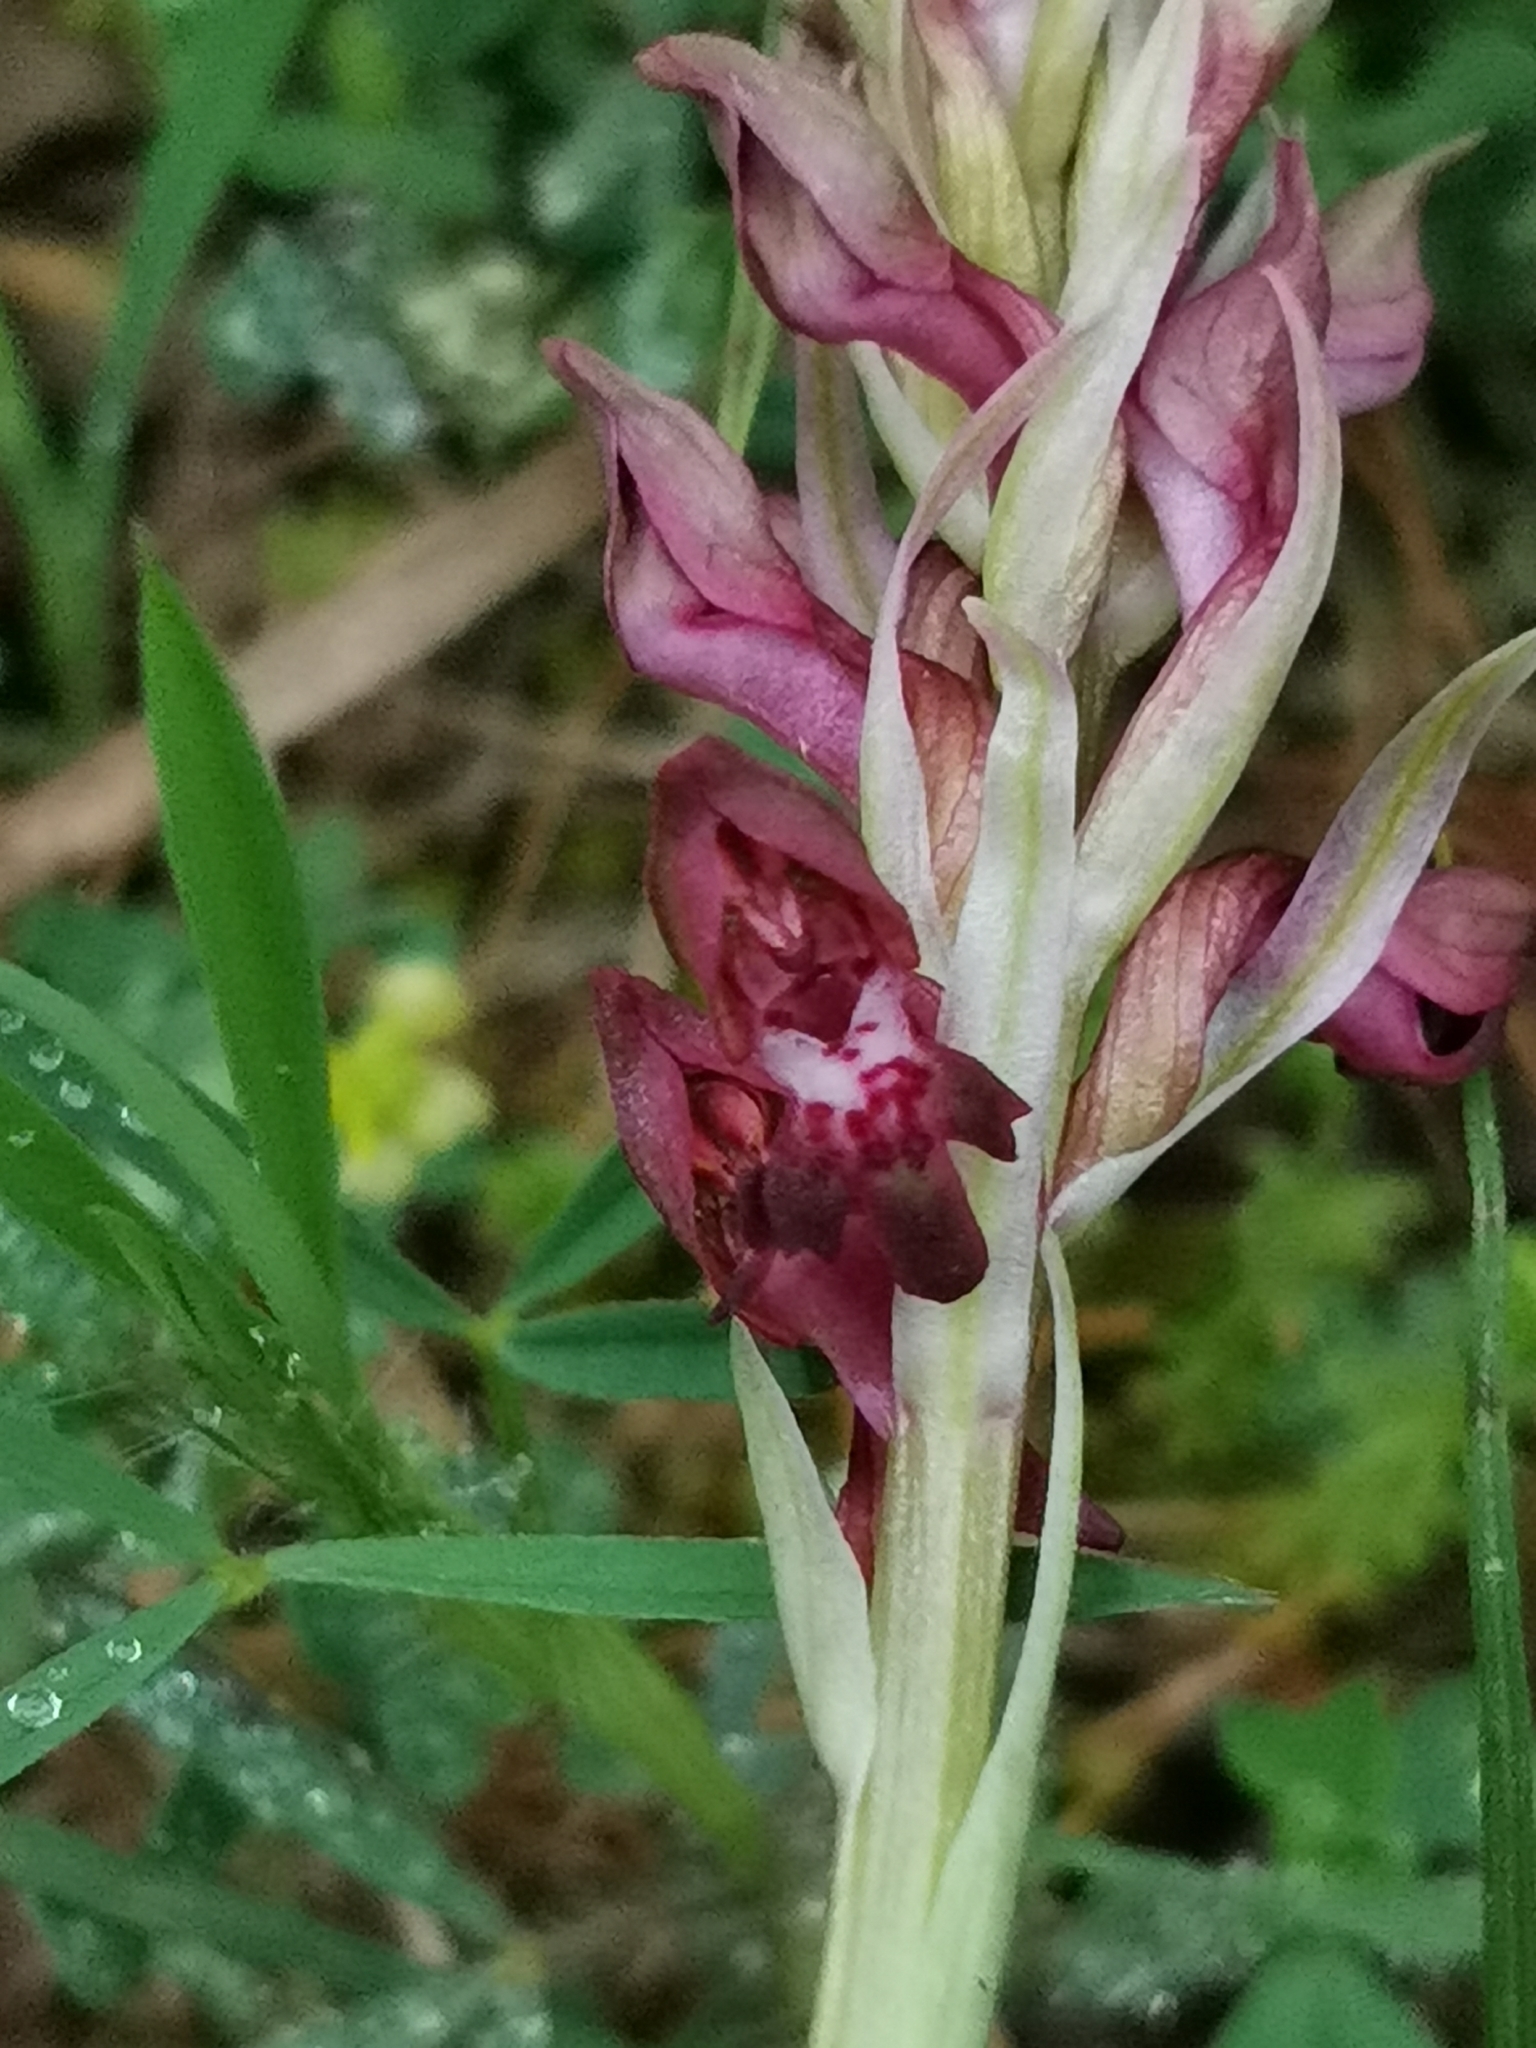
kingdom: Plantae
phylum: Tracheophyta
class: Liliopsida
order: Asparagales
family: Orchidaceae
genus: Anacamptis
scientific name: Anacamptis coriophora
